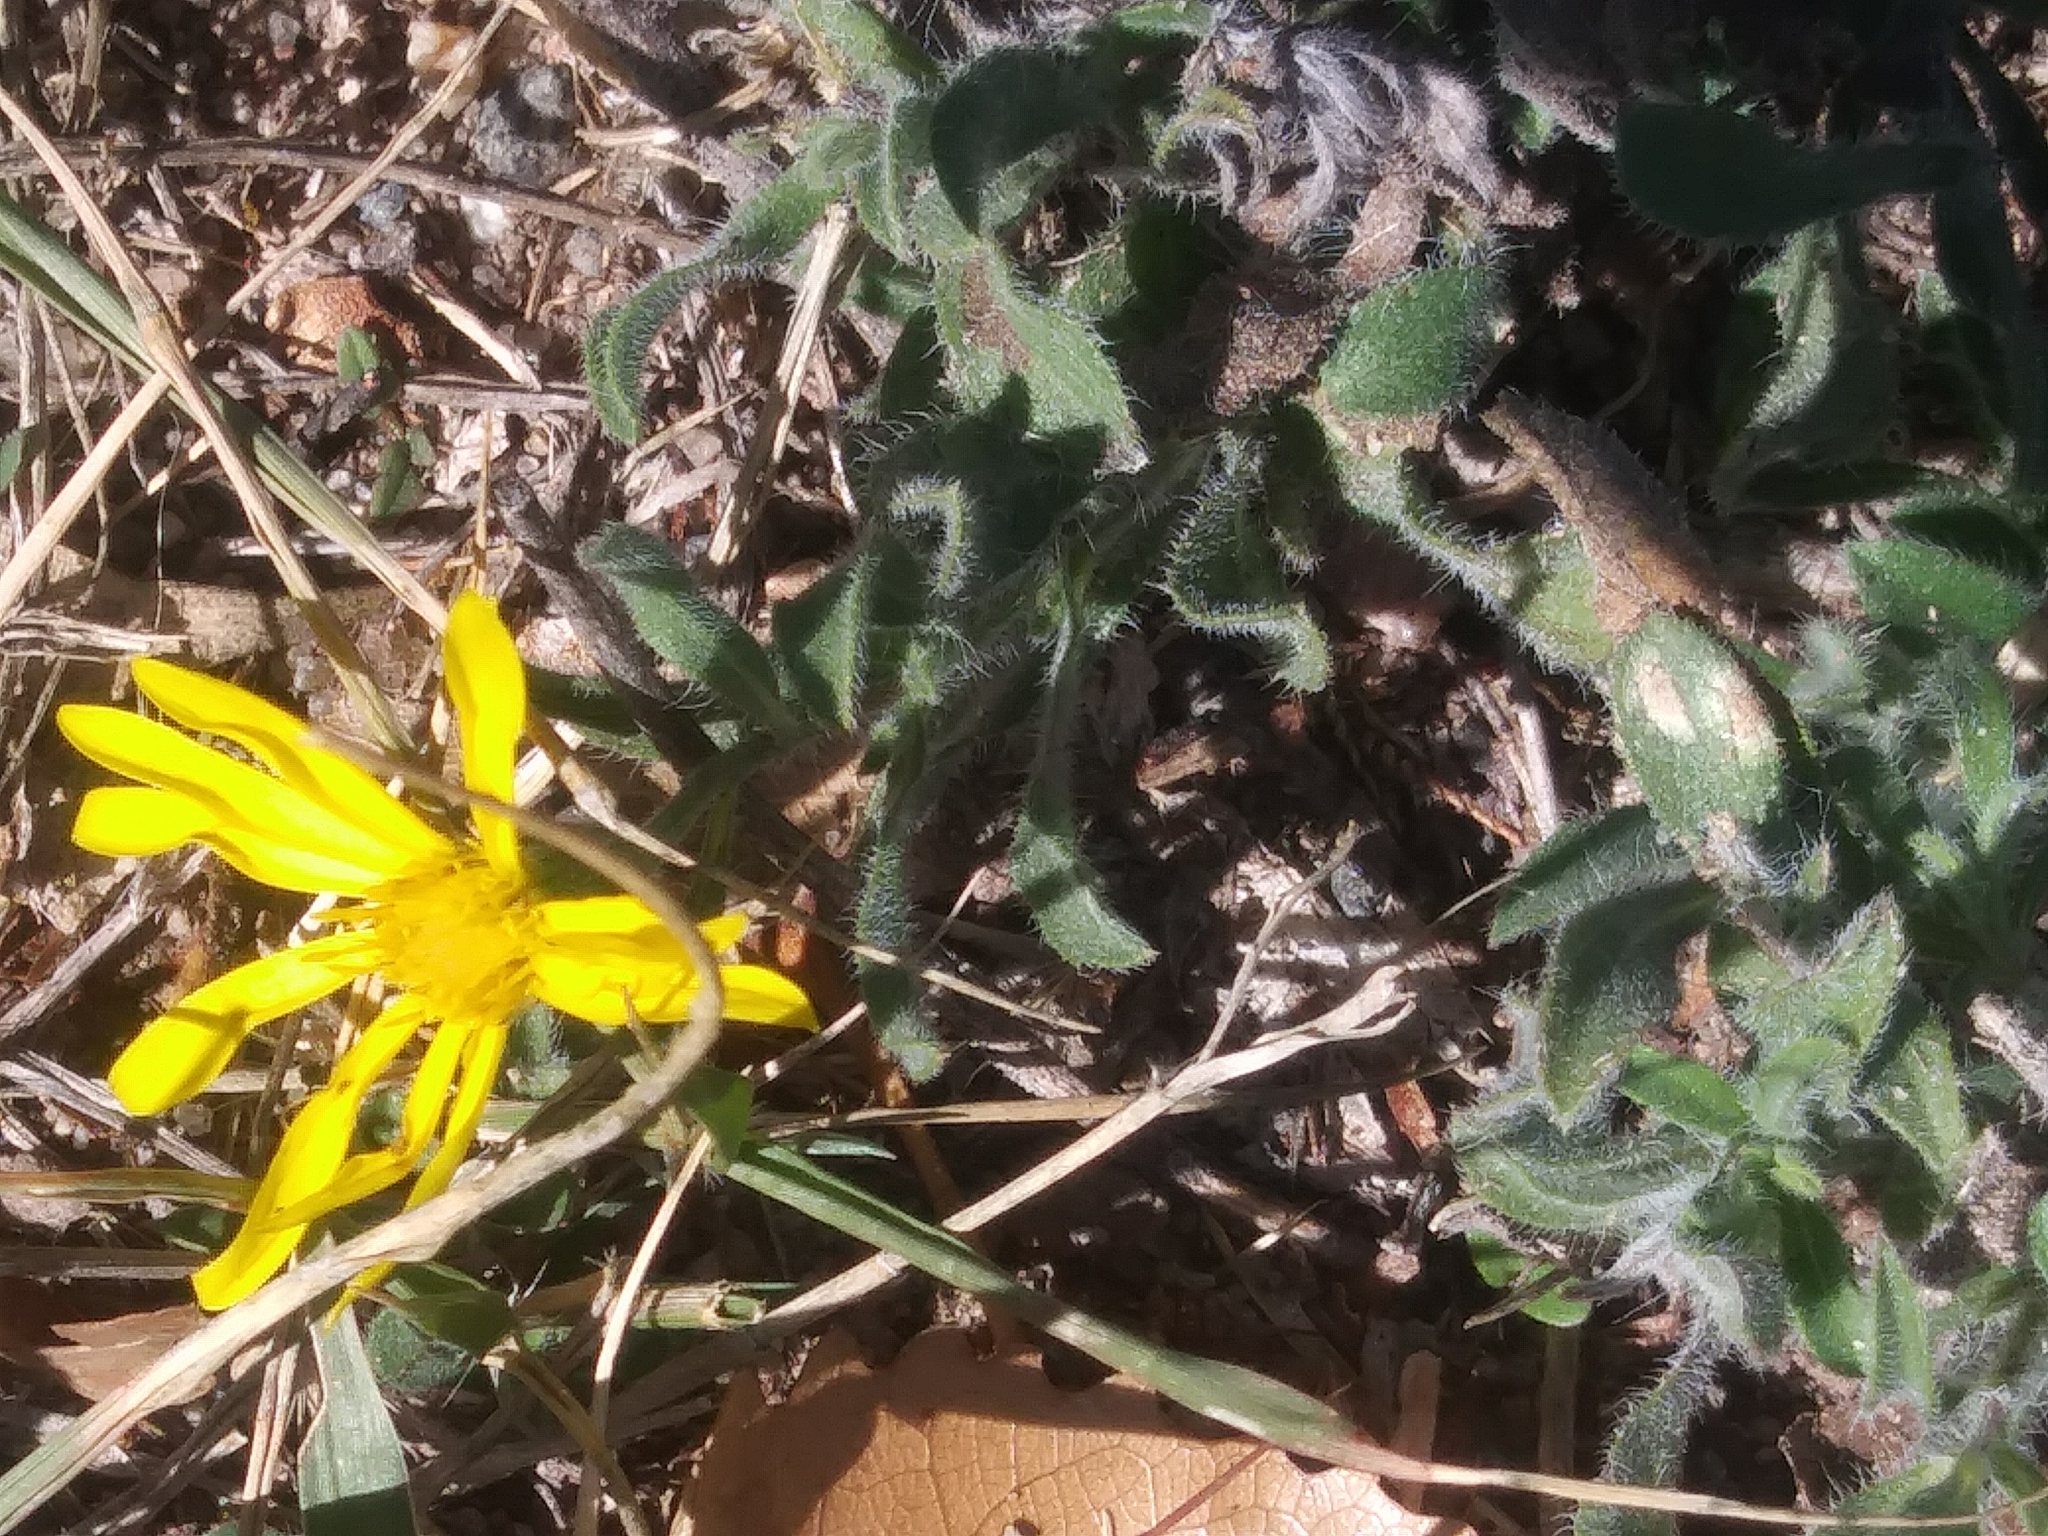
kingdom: Plantae
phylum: Tracheophyta
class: Magnoliopsida
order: Asterales
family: Asteraceae
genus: Heterotheca
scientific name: Heterotheca villosa
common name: Hairy false goldenaster
